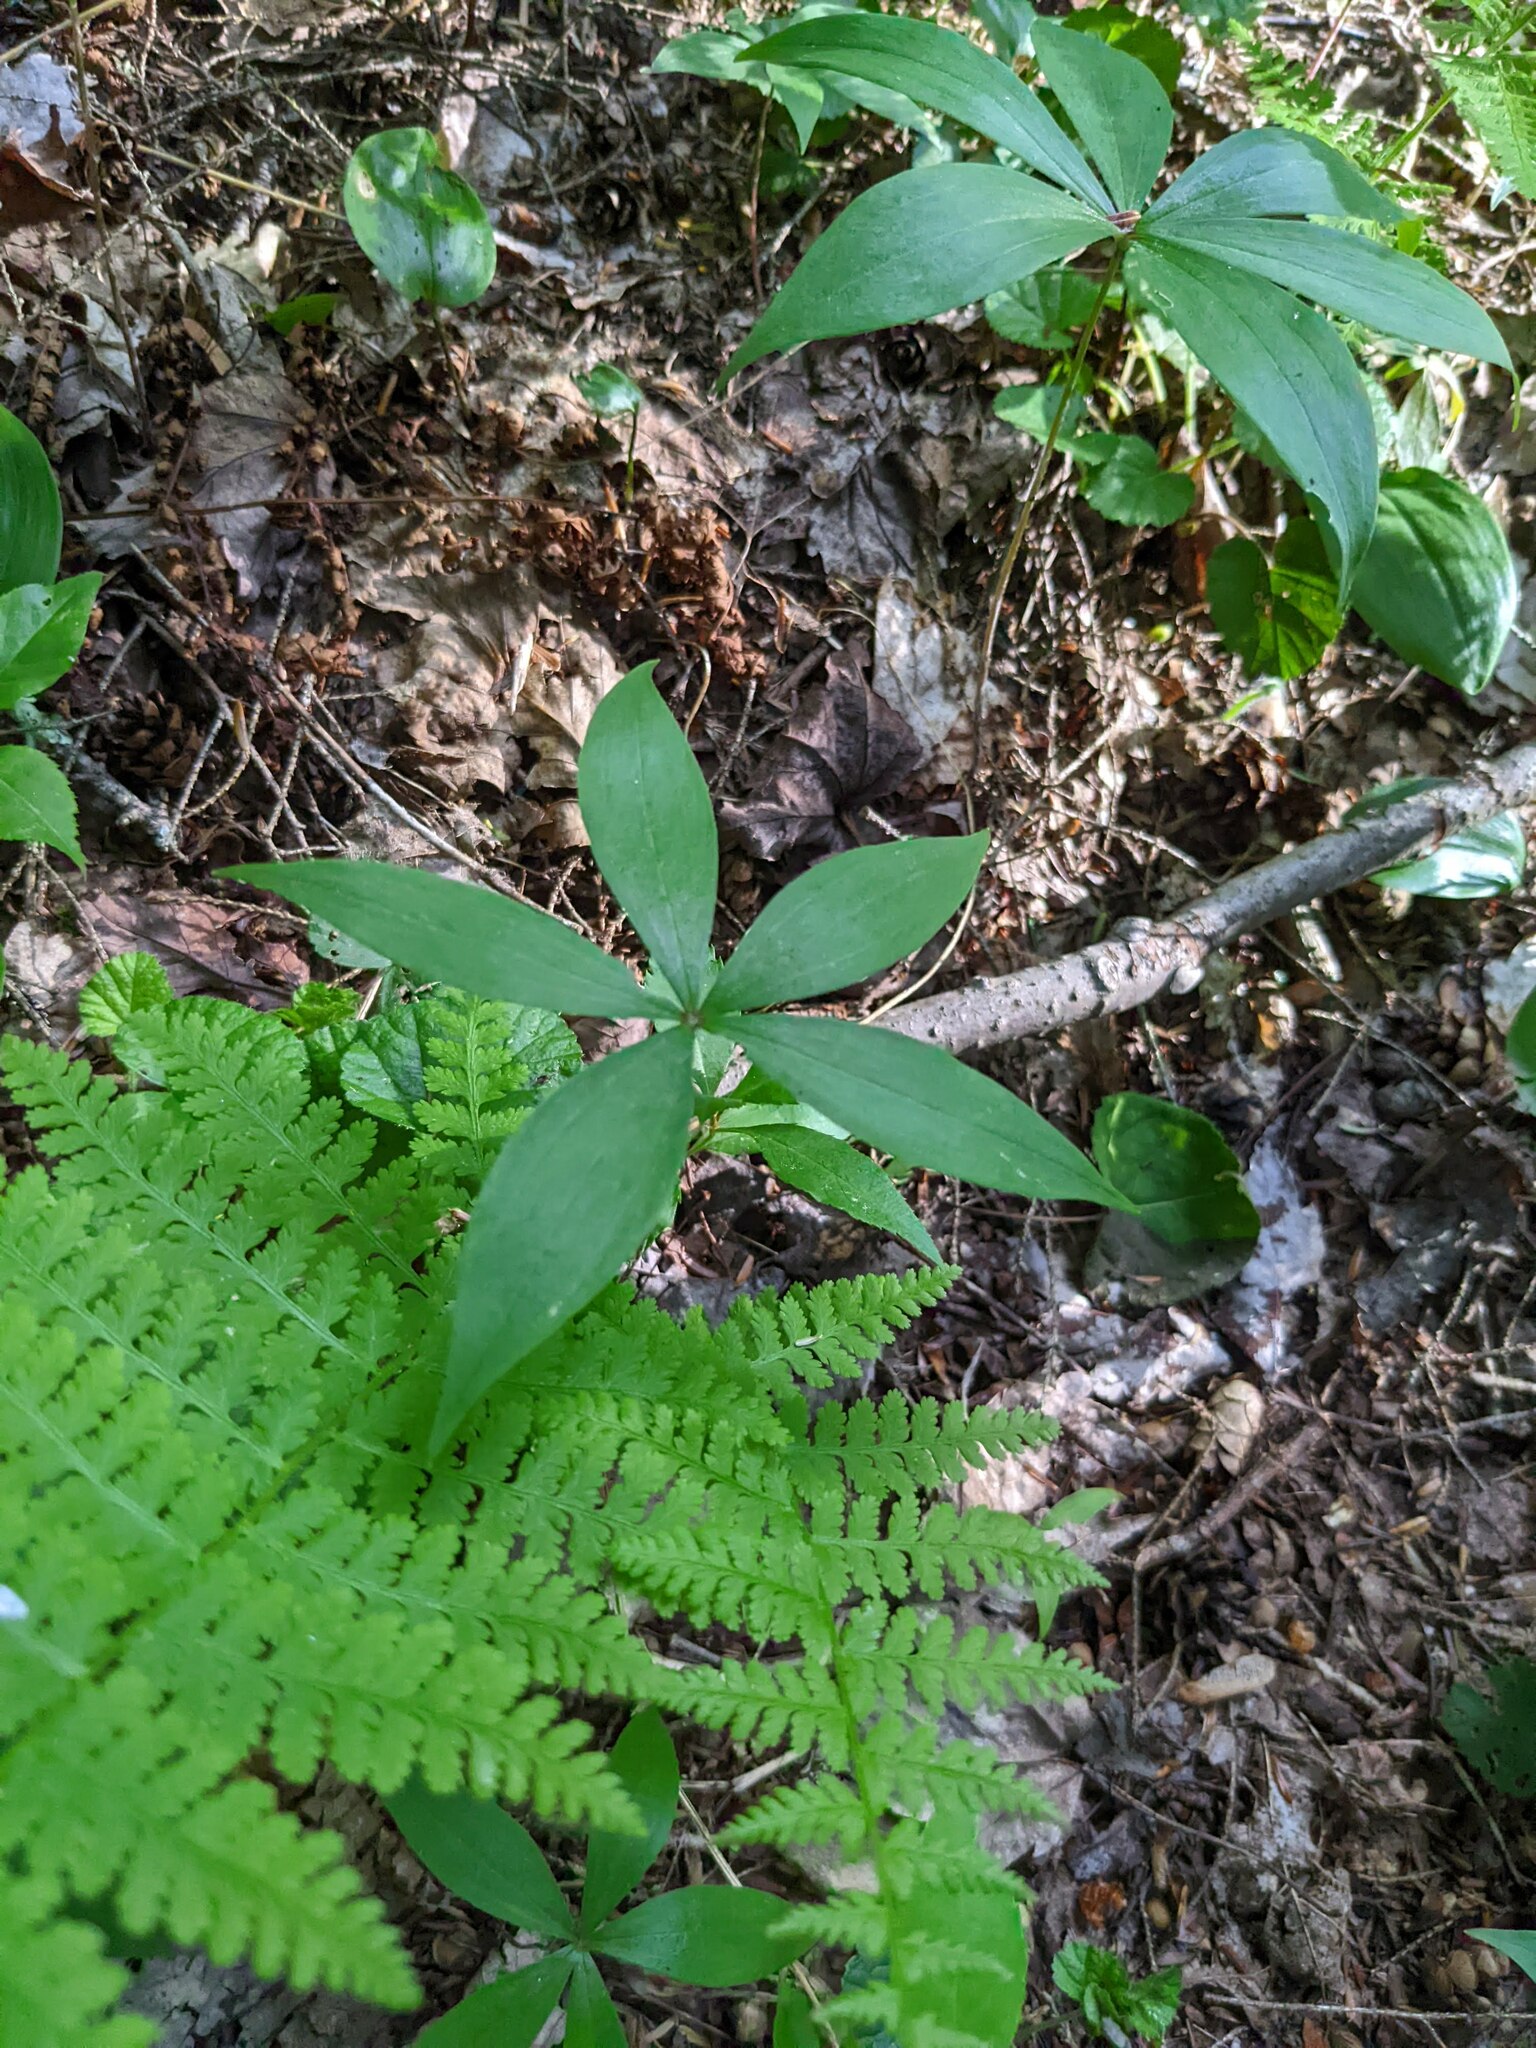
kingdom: Plantae
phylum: Tracheophyta
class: Liliopsida
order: Liliales
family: Liliaceae
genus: Medeola
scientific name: Medeola virginiana
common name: Indian cucumber-root
